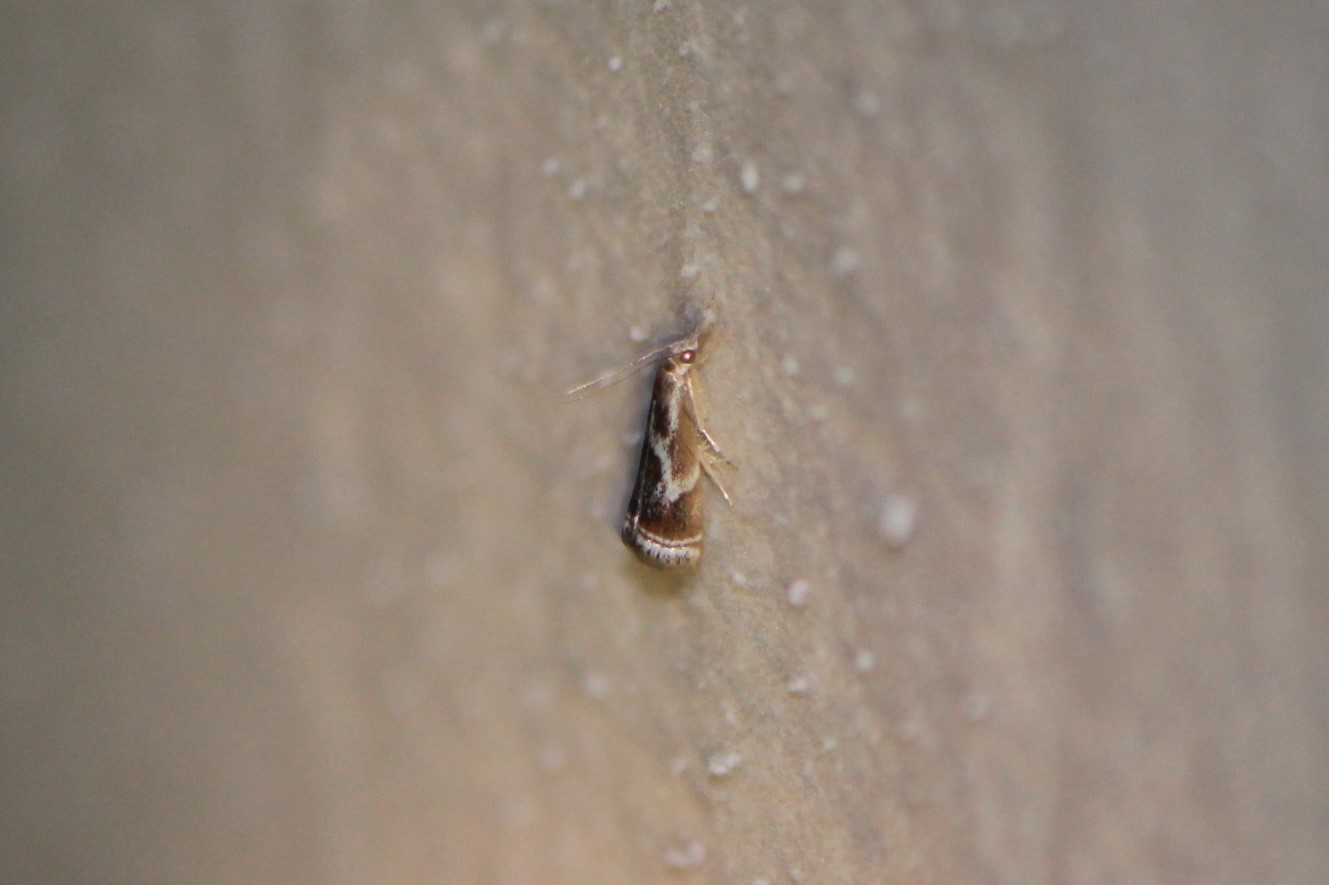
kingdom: Animalia
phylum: Arthropoda
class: Insecta
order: Lepidoptera
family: Crambidae
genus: Microcrambus
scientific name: Microcrambus elegans
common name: Elegant grass-veneer
